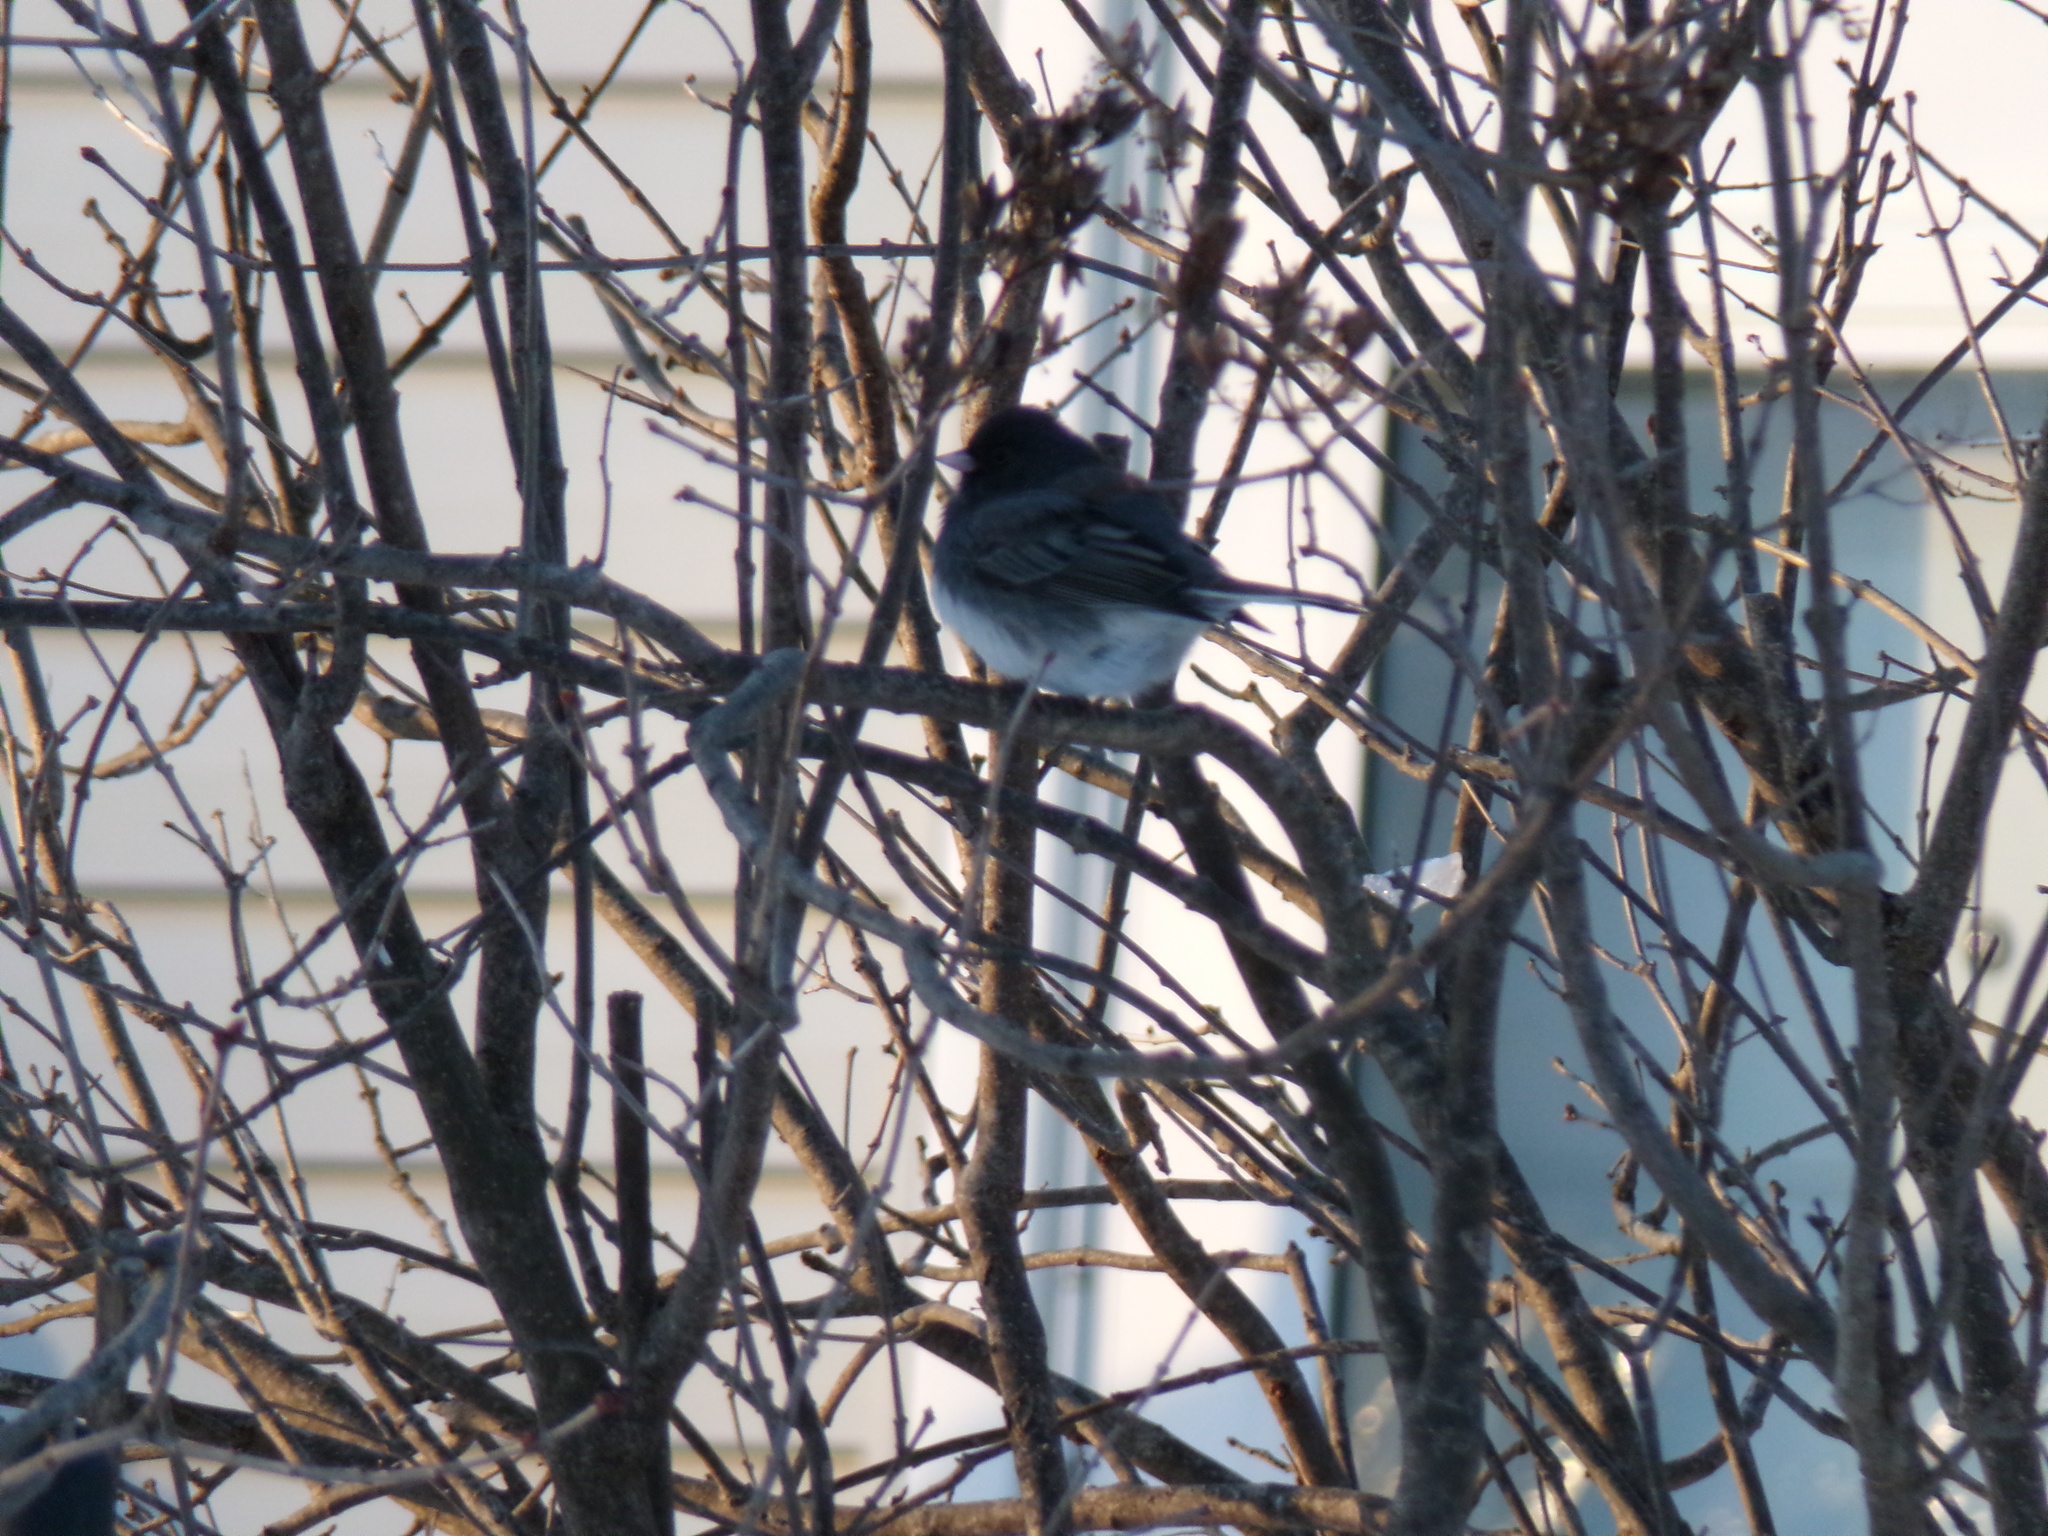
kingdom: Animalia
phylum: Chordata
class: Aves
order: Passeriformes
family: Passerellidae
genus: Junco
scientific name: Junco hyemalis
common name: Dark-eyed junco
